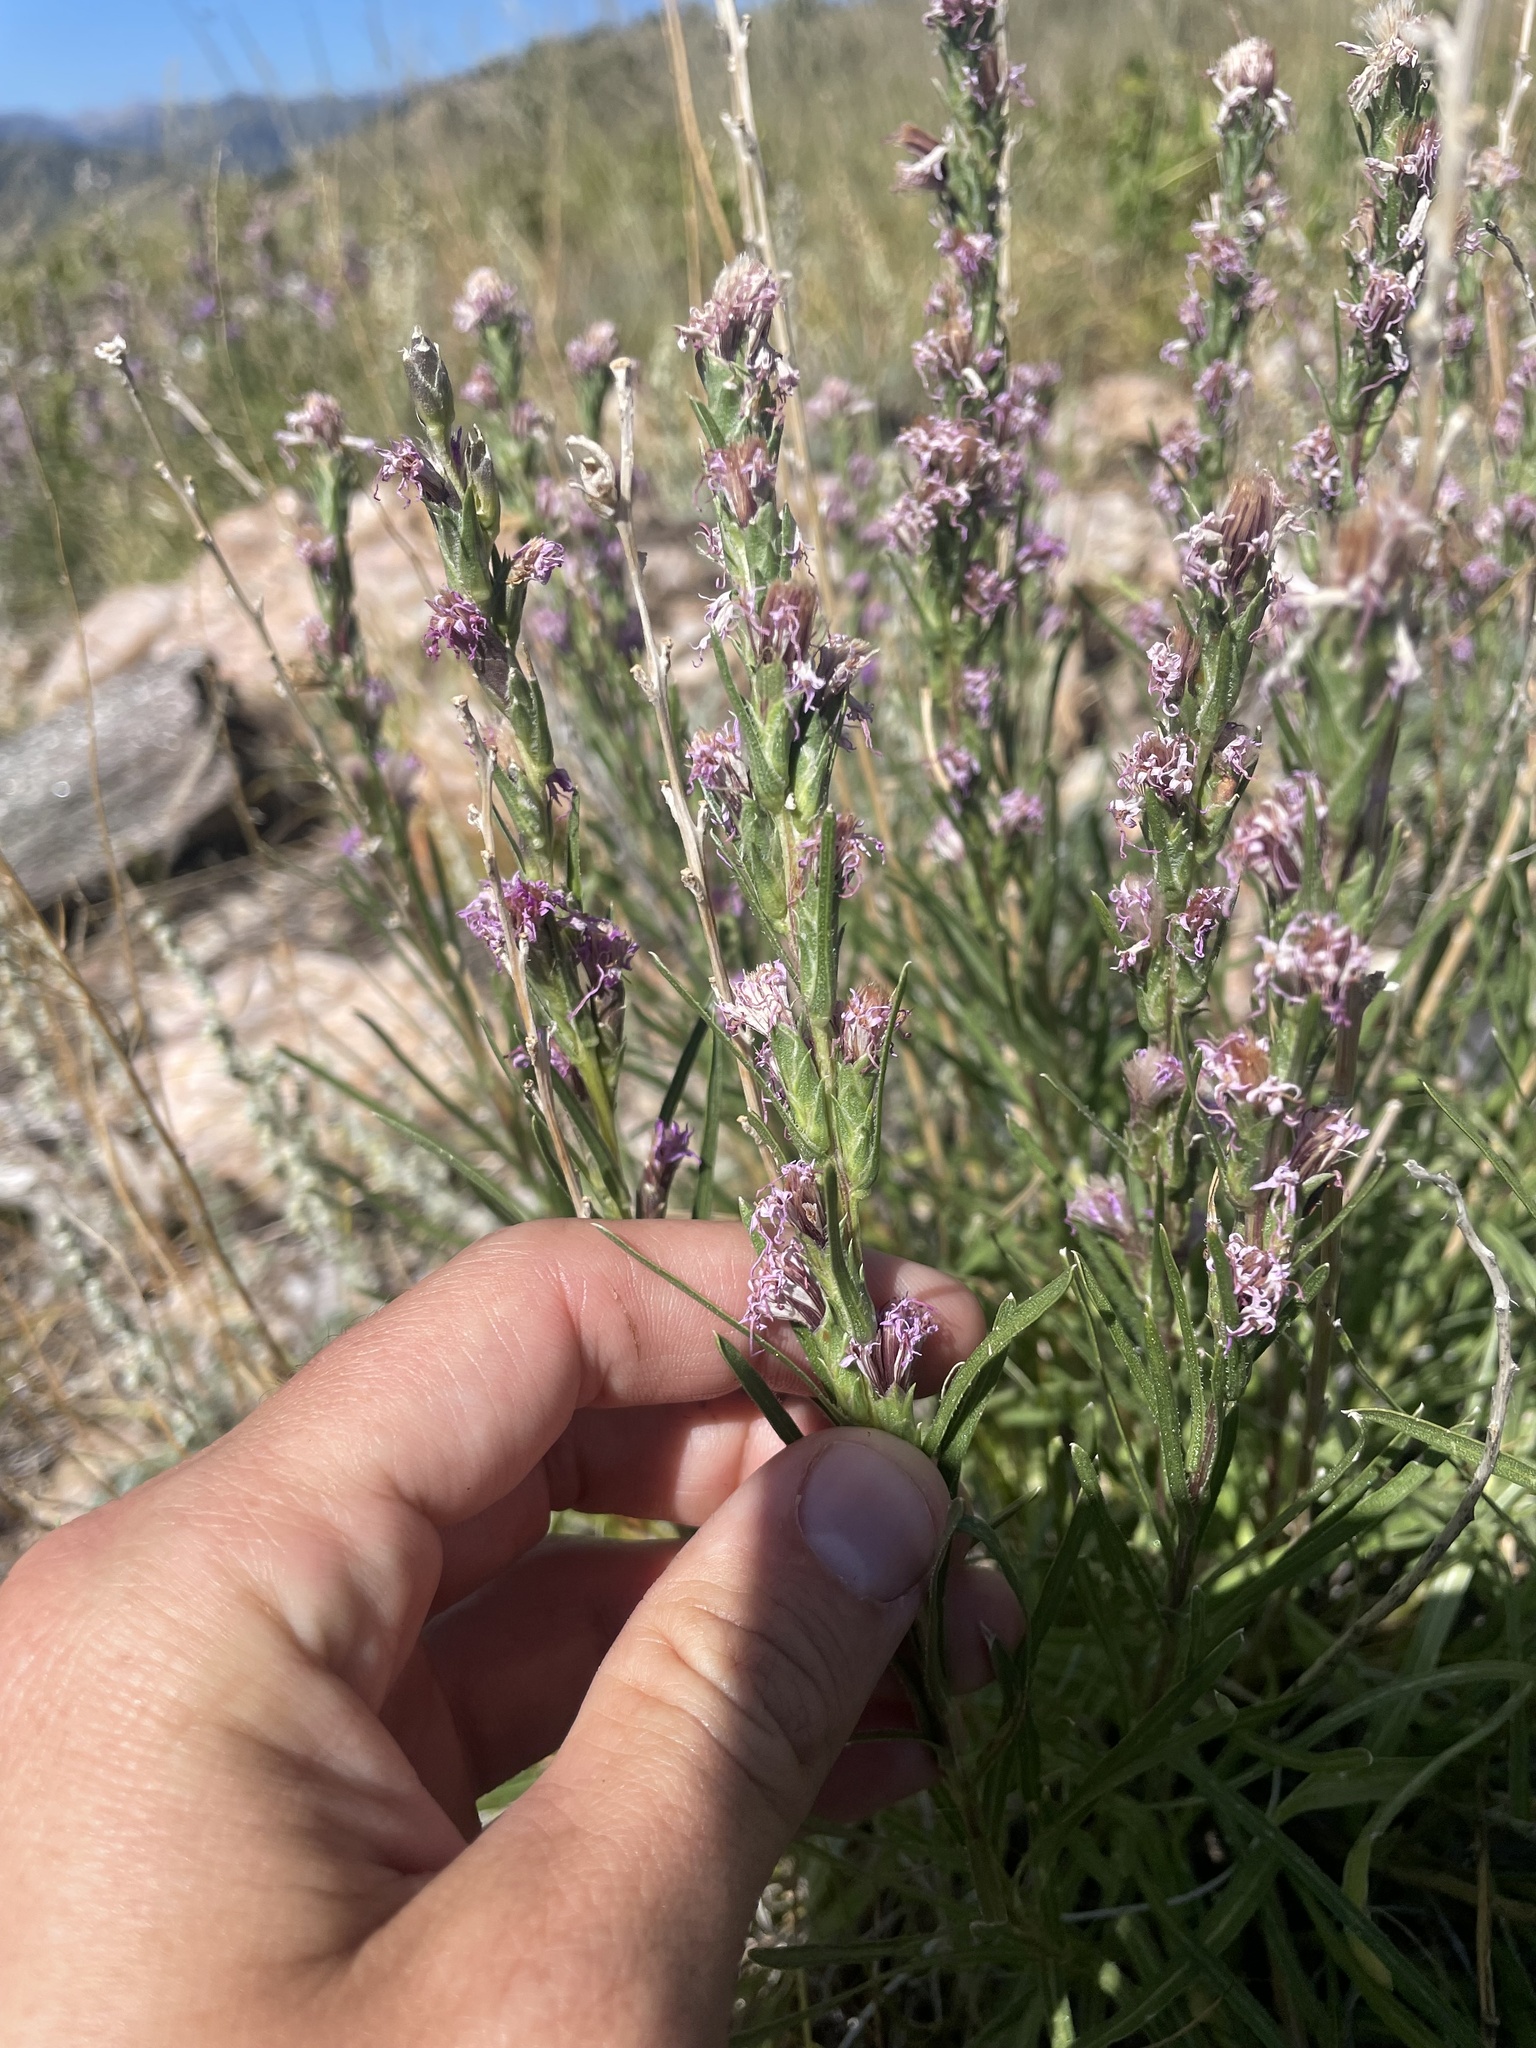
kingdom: Plantae
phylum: Tracheophyta
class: Magnoliopsida
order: Asterales
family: Asteraceae
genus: Liatris
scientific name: Liatris punctata
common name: Dotted gayfeather
